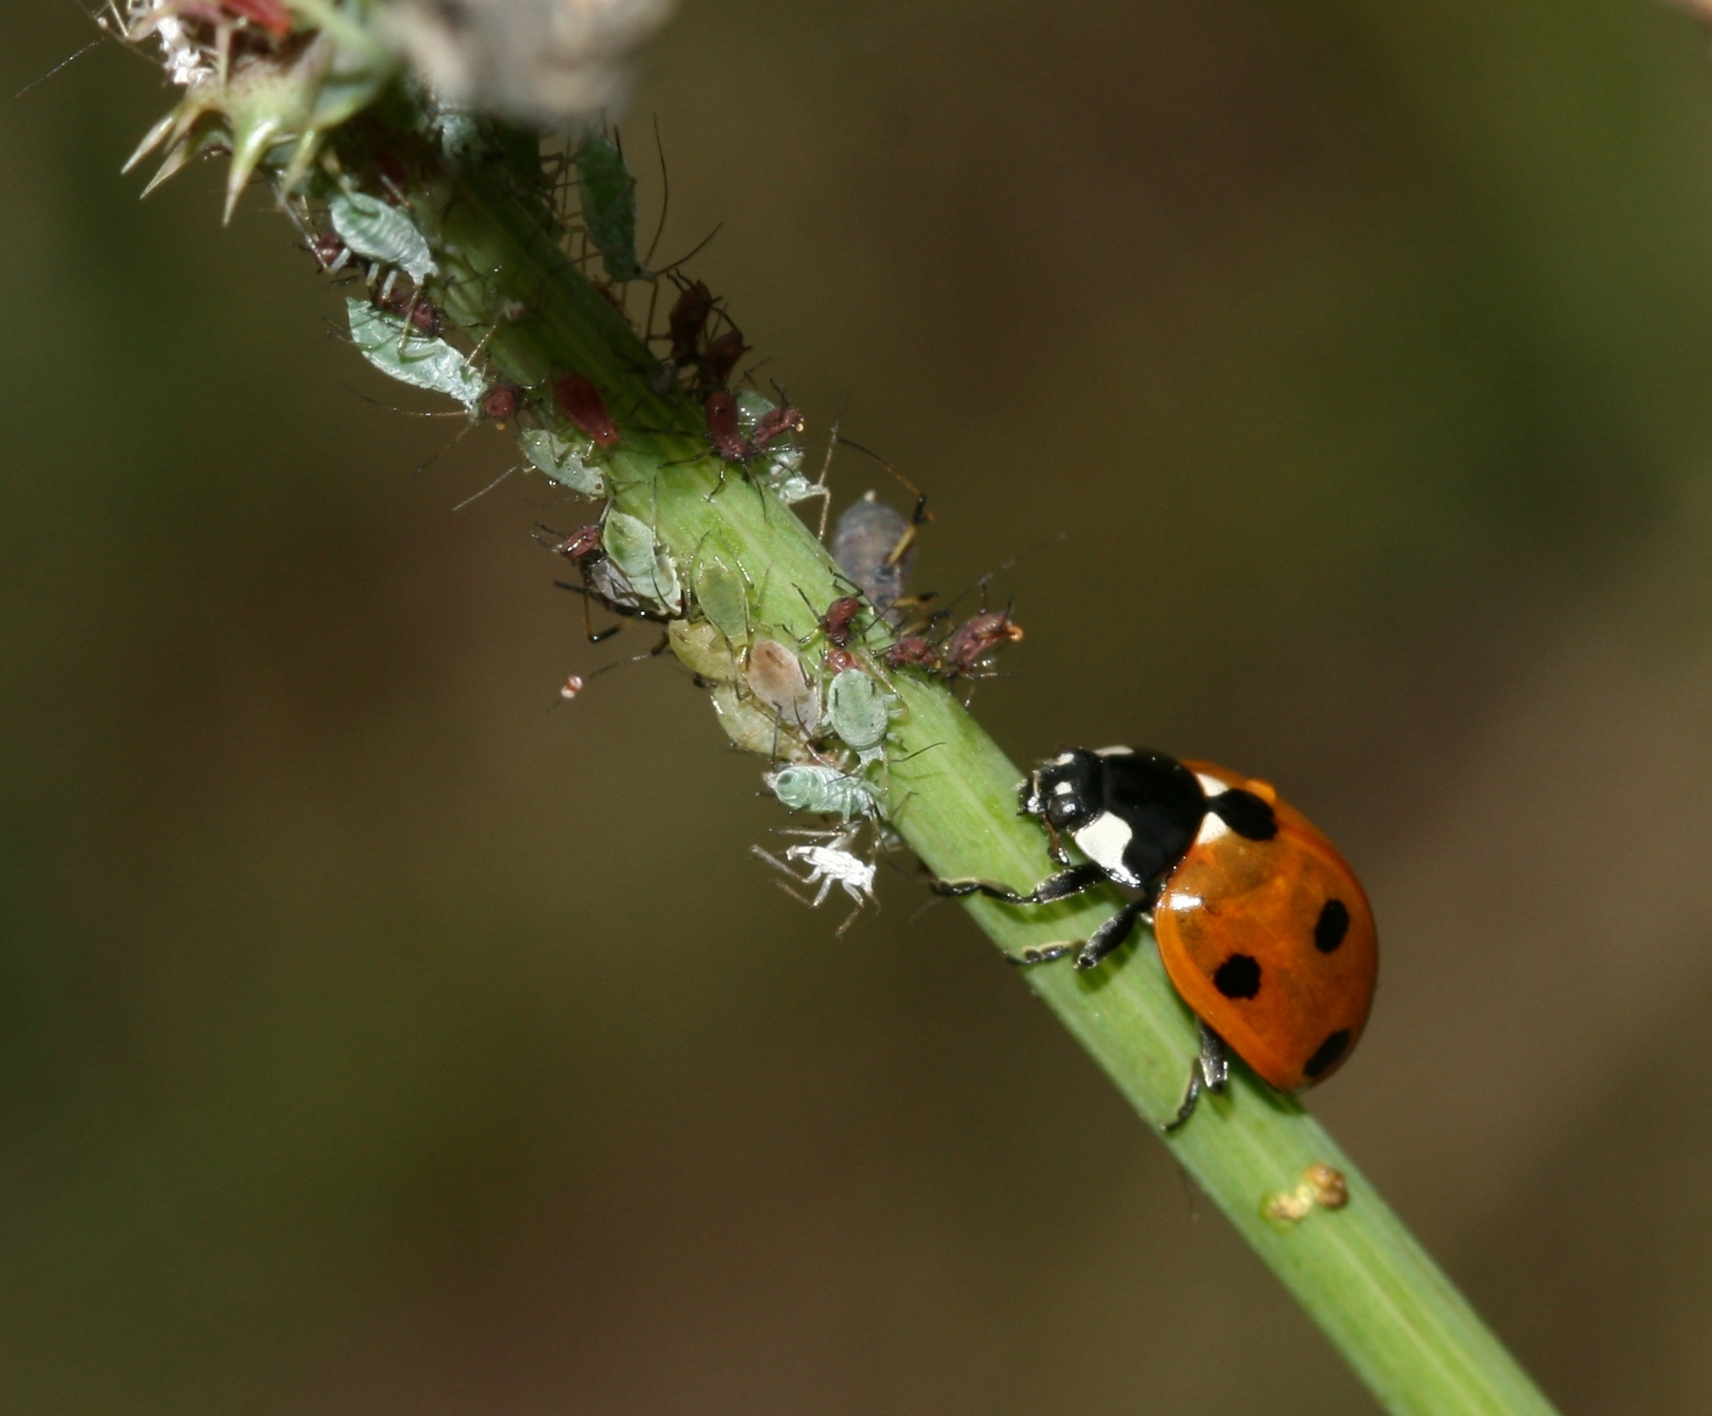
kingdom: Animalia
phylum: Arthropoda
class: Insecta
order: Coleoptera
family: Coccinellidae
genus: Coccinella
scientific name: Coccinella septempunctata
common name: Sevenspotted lady beetle
